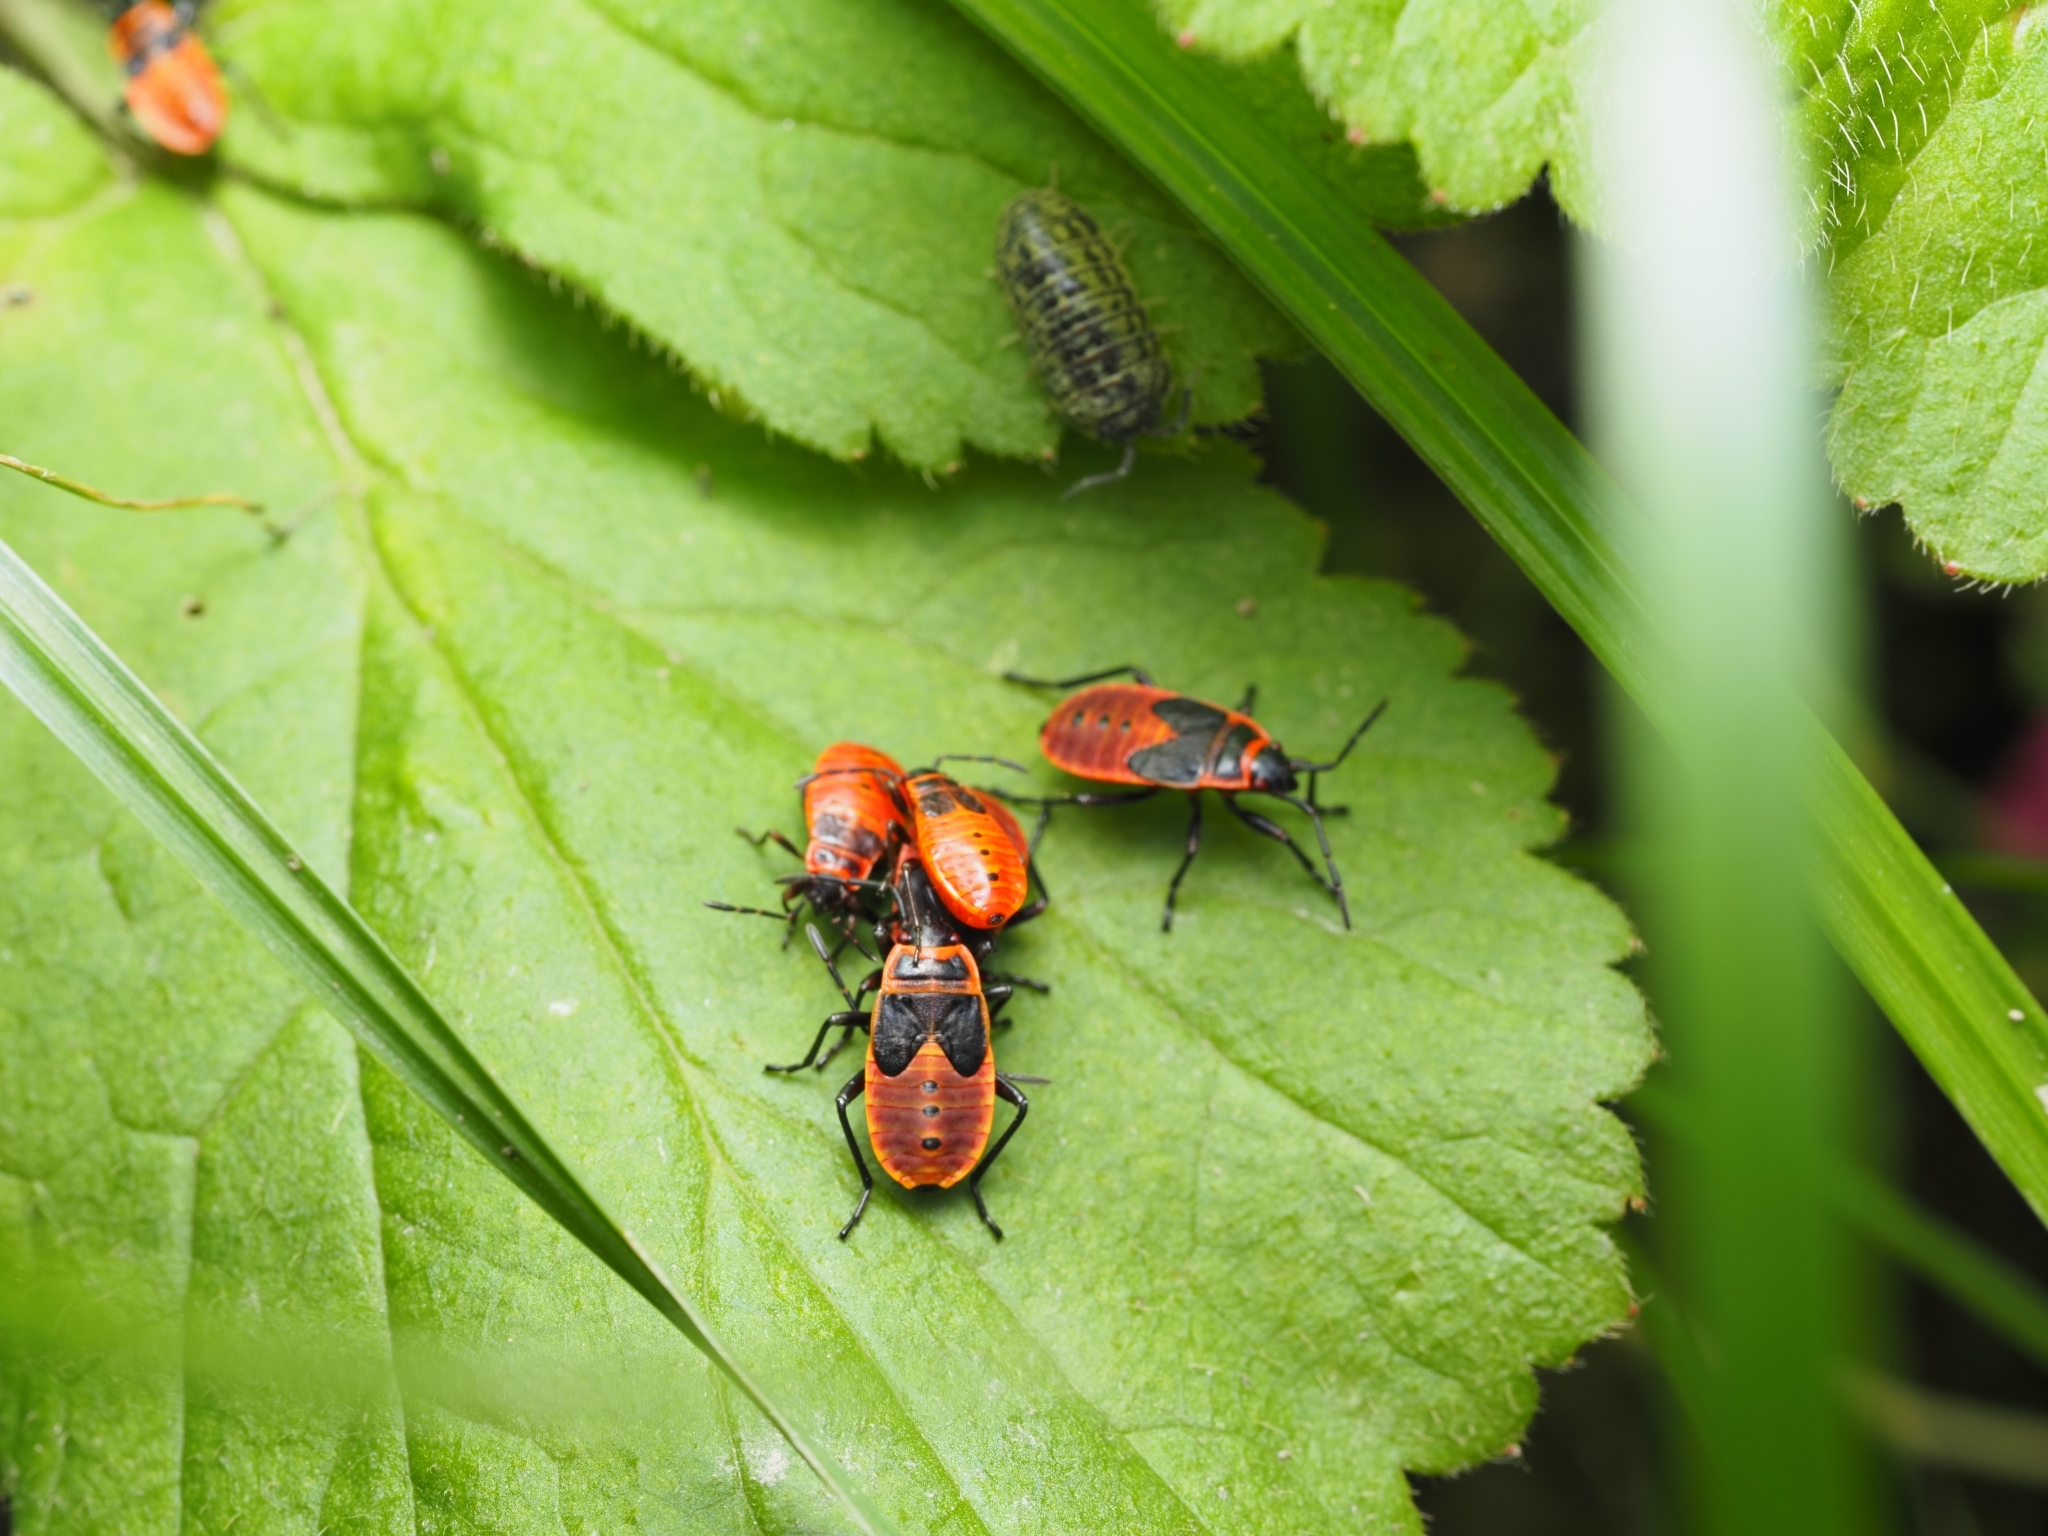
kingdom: Animalia
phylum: Arthropoda
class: Insecta
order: Hemiptera
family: Pyrrhocoridae
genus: Pyrrhocoris
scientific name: Pyrrhocoris apterus
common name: Firebug
